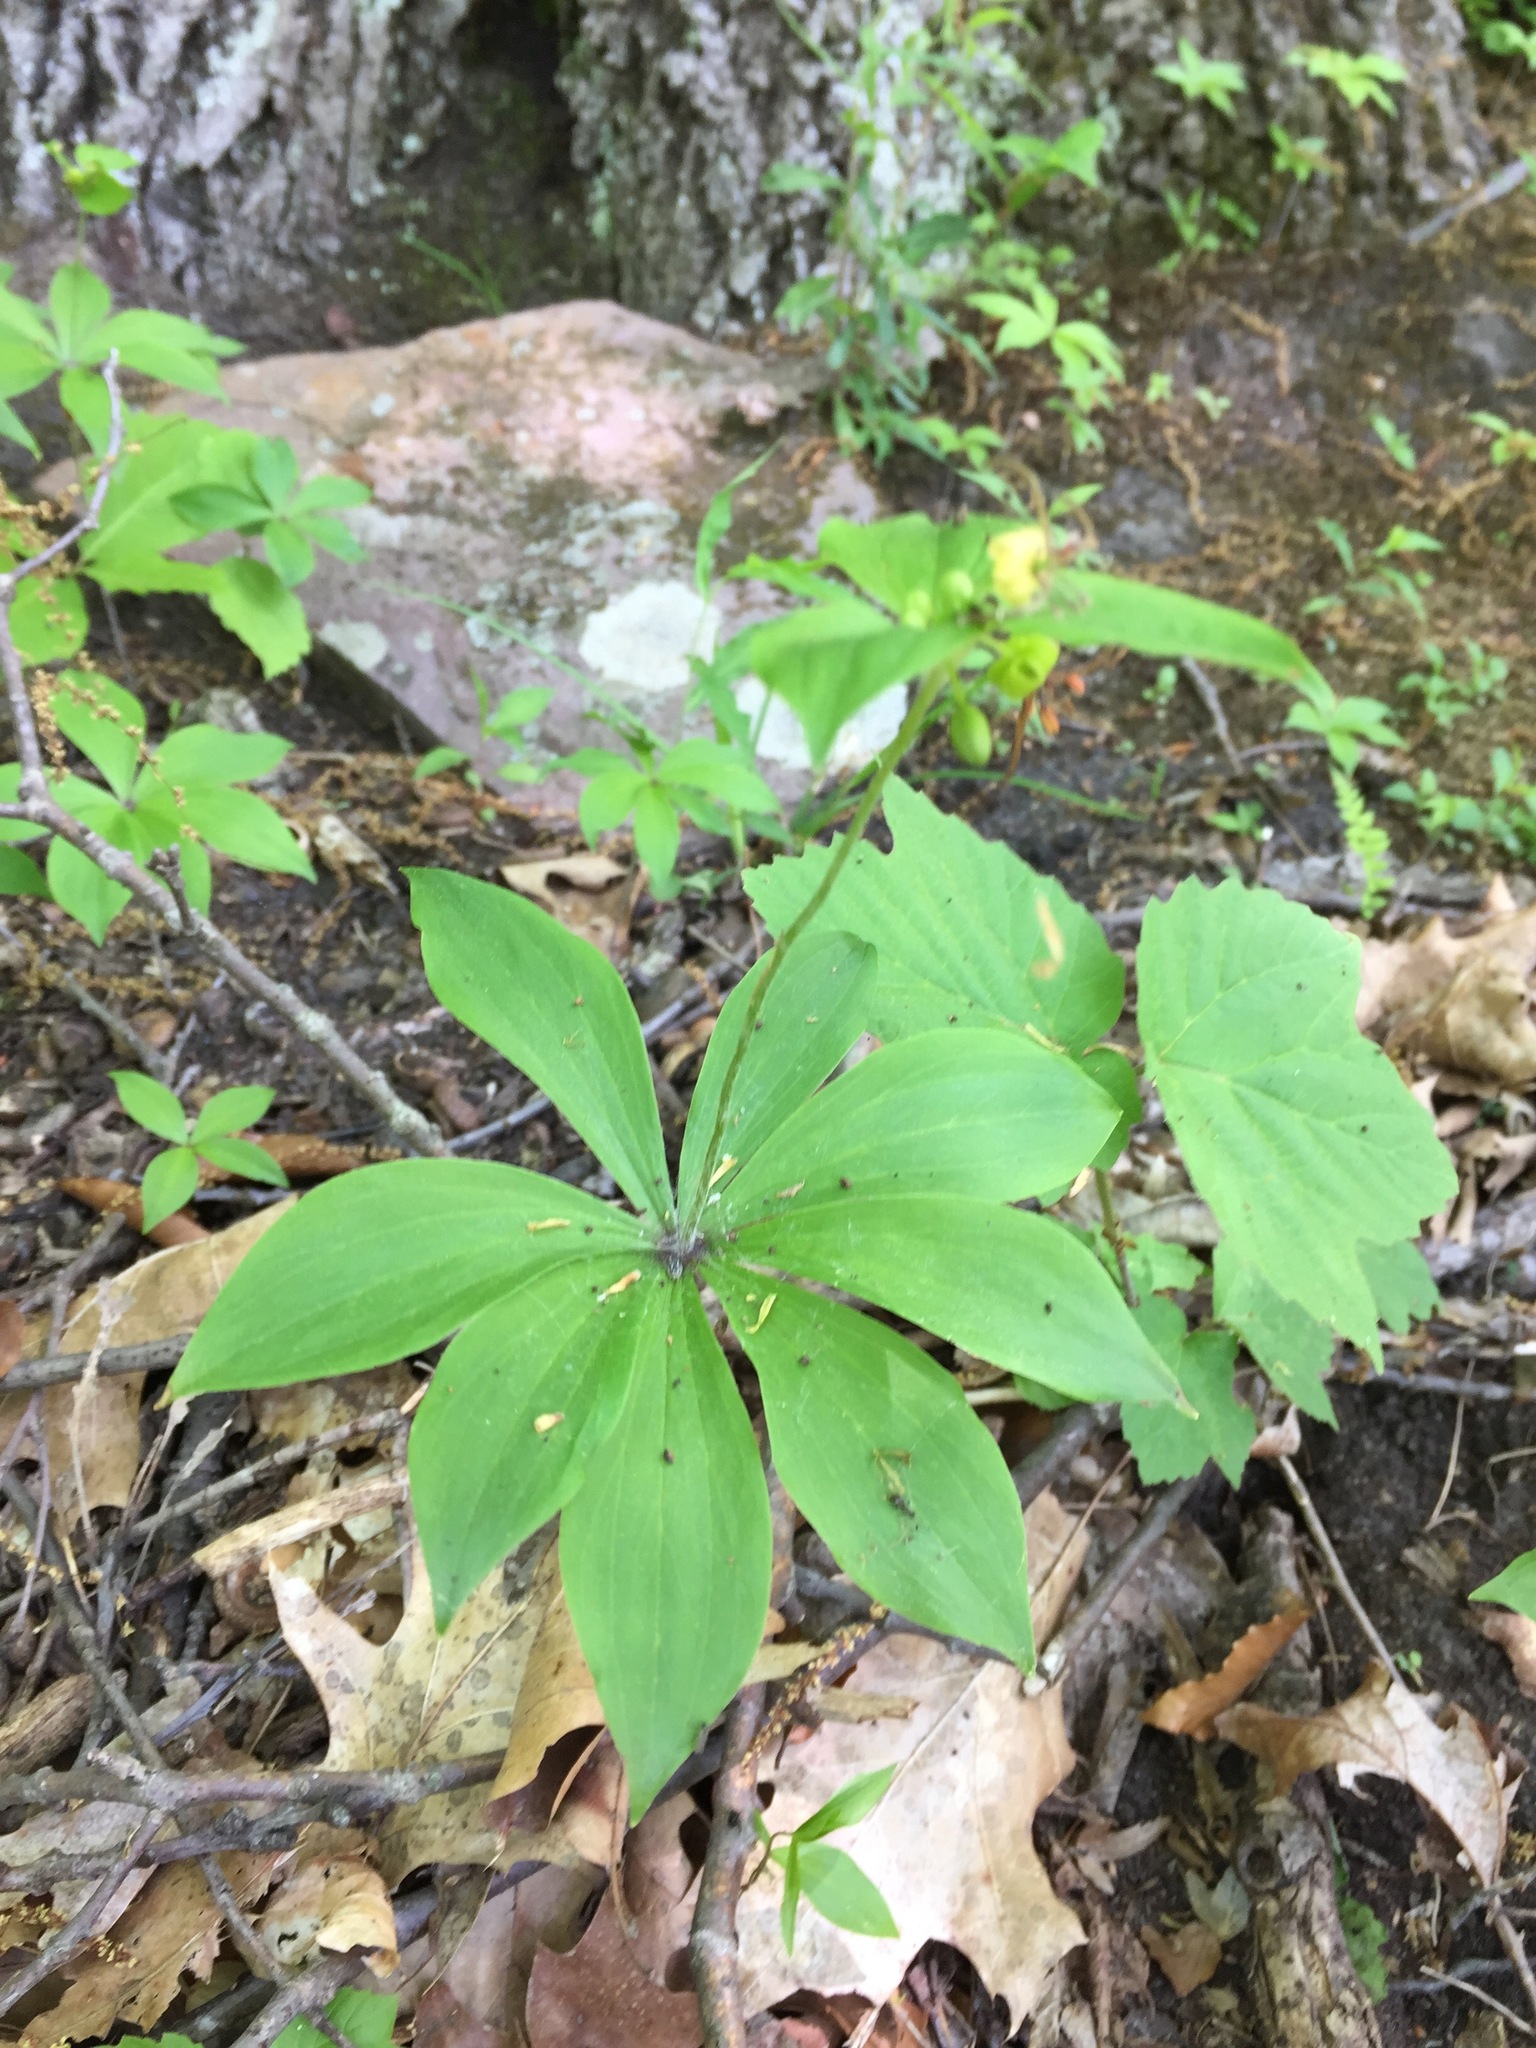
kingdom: Plantae
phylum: Tracheophyta
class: Liliopsida
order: Liliales
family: Liliaceae
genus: Medeola
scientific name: Medeola virginiana
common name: Indian cucumber-root
